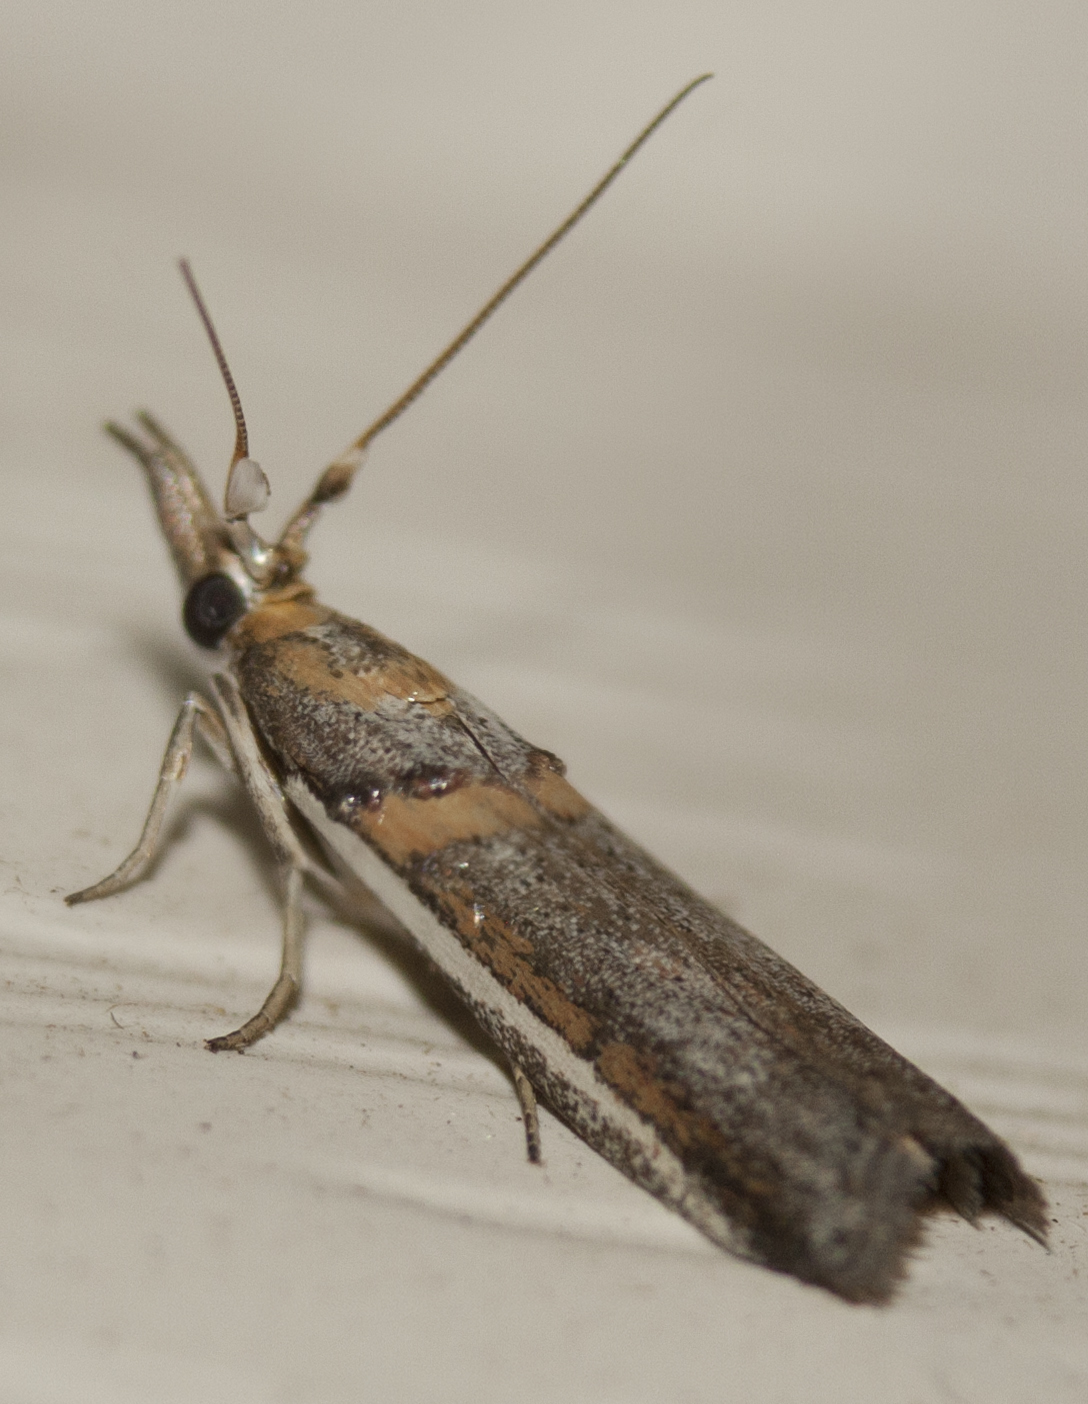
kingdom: Animalia
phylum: Arthropoda
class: Insecta
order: Lepidoptera
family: Pyralidae
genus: Etiella
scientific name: Etiella behrii
